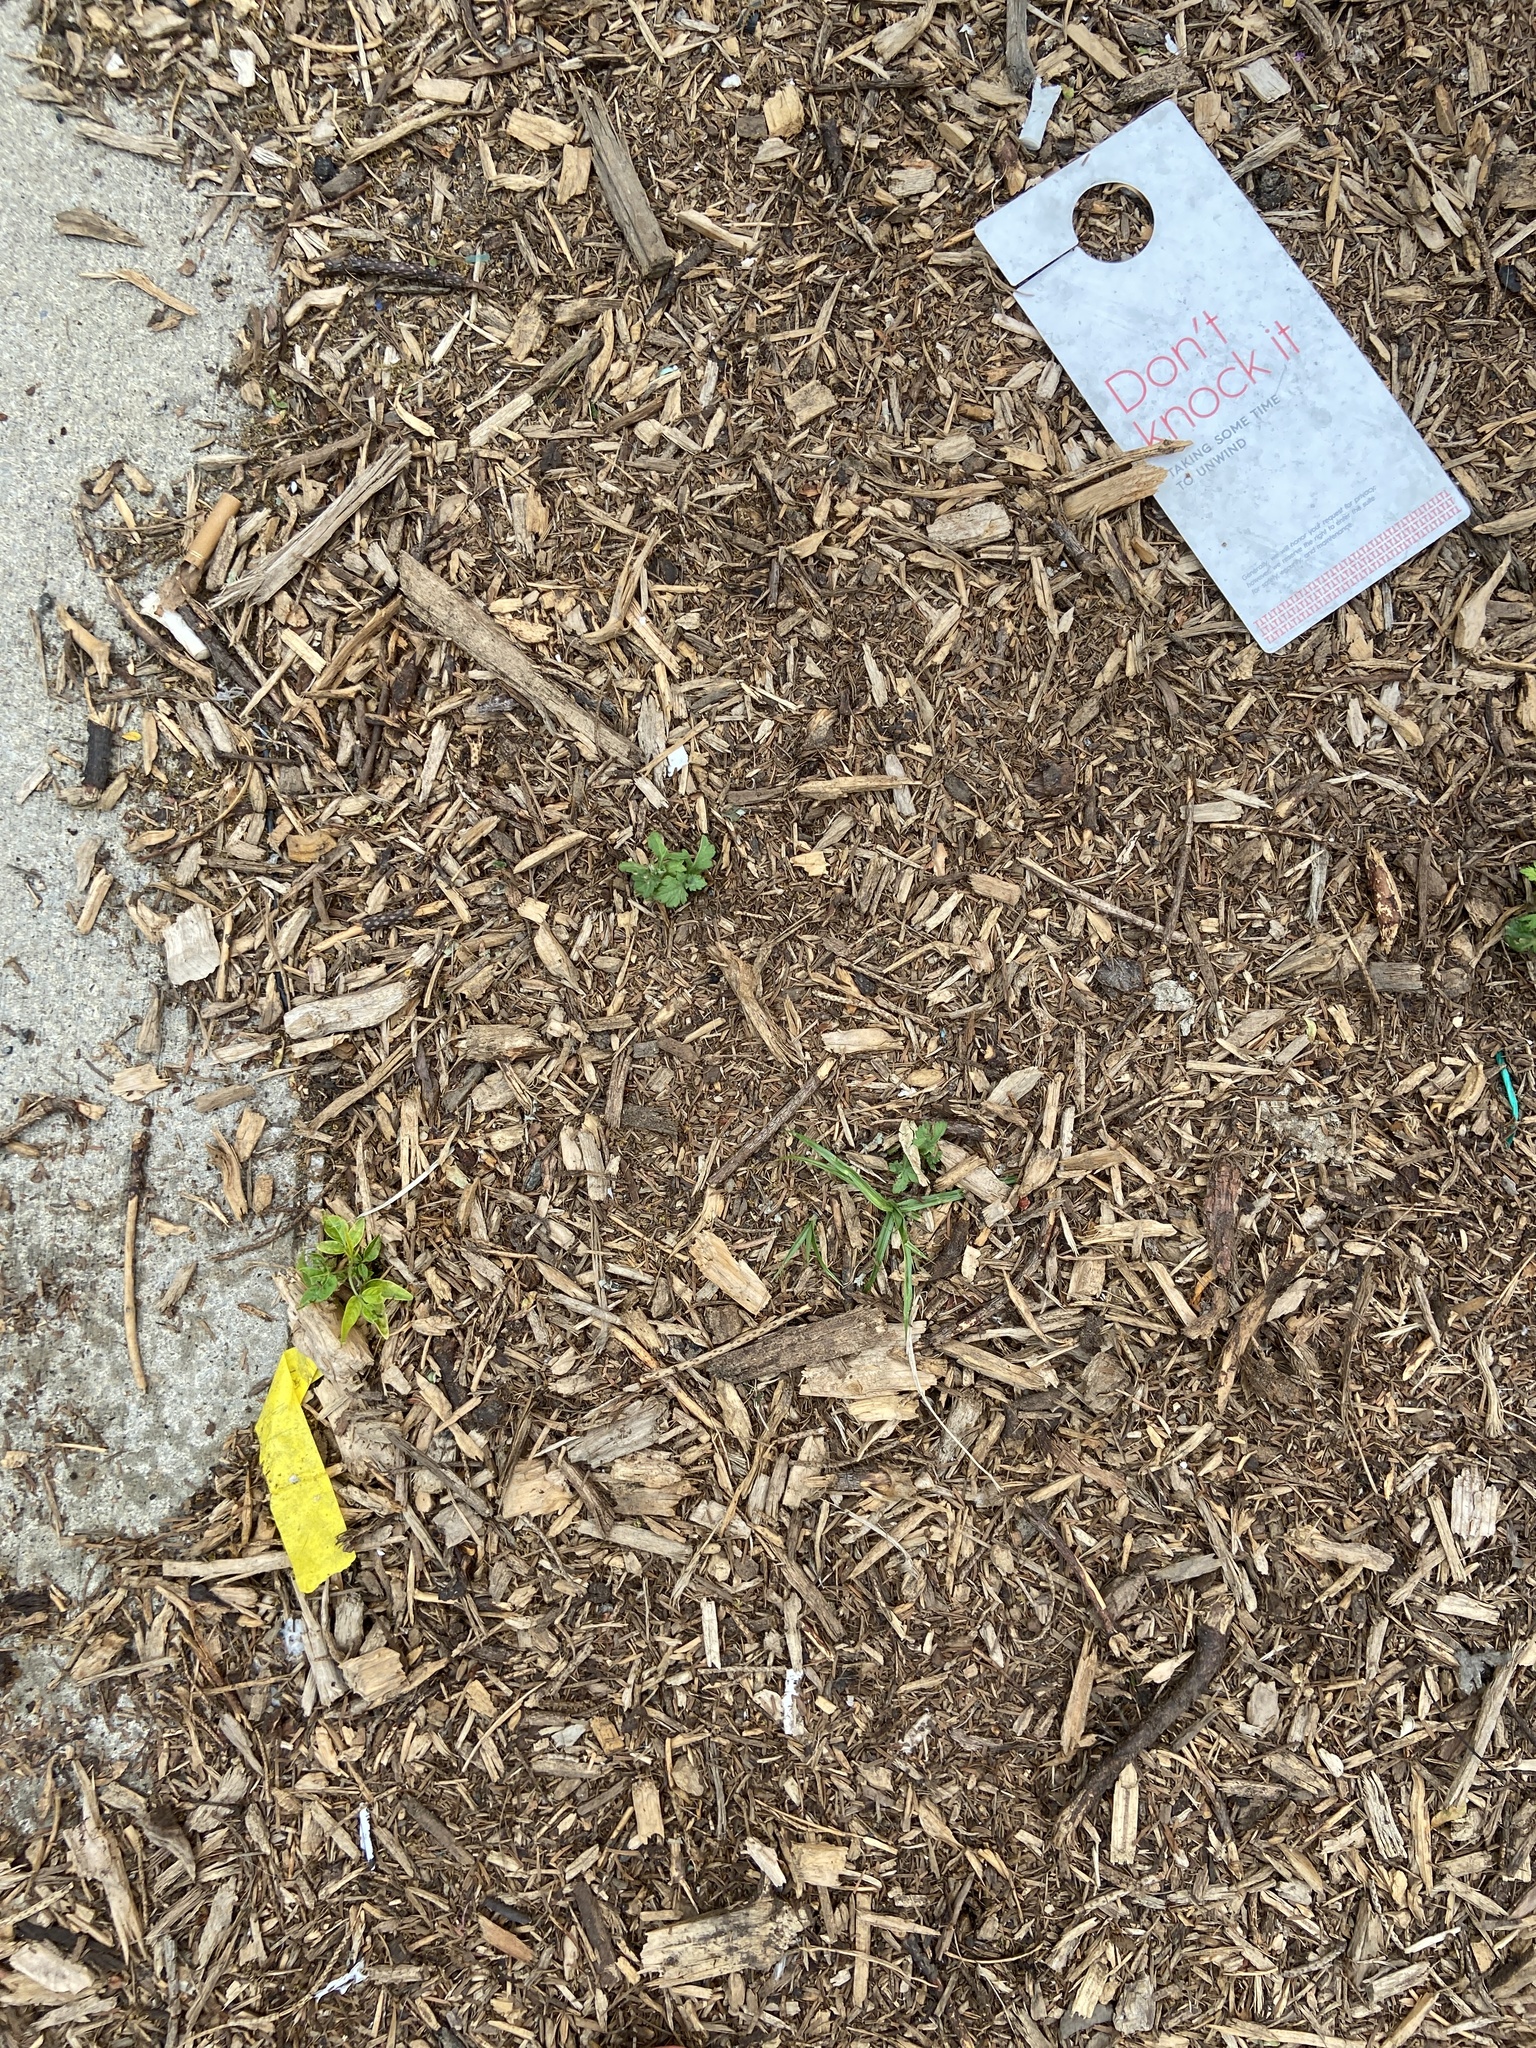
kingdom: Plantae
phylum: Tracheophyta
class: Magnoliopsida
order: Caryophyllales
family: Amaranthaceae
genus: Dysphania
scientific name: Dysphania pumilio
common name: Clammy goosefoot
